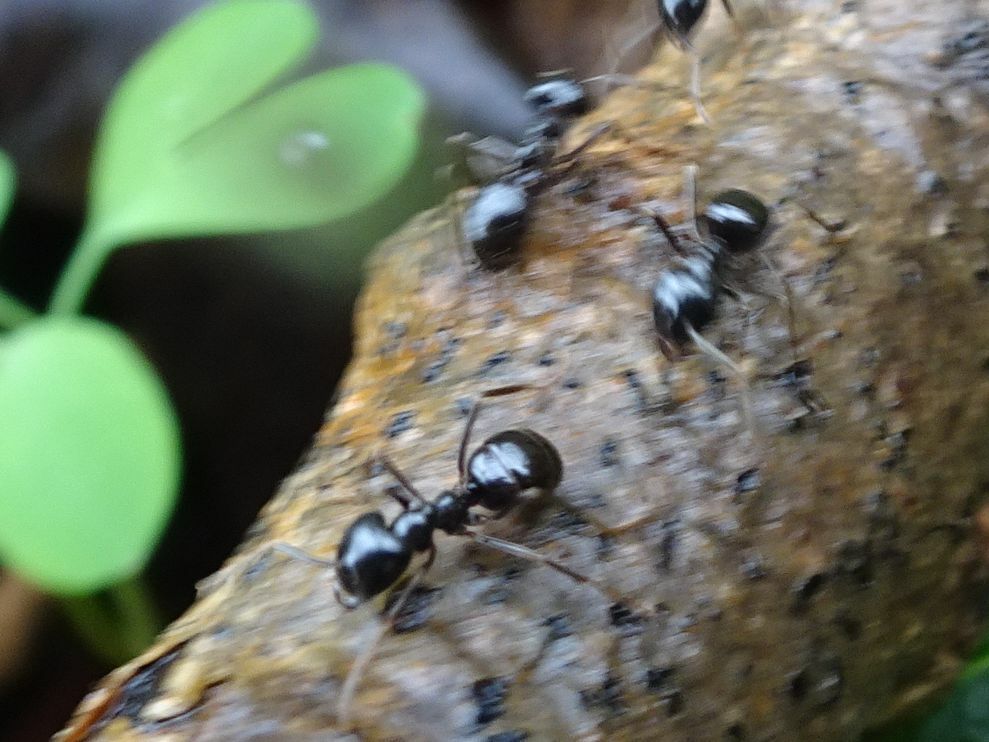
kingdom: Animalia
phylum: Arthropoda
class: Insecta
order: Hymenoptera
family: Formicidae
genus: Lasius
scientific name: Lasius fuliginosus
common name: Jet ant
